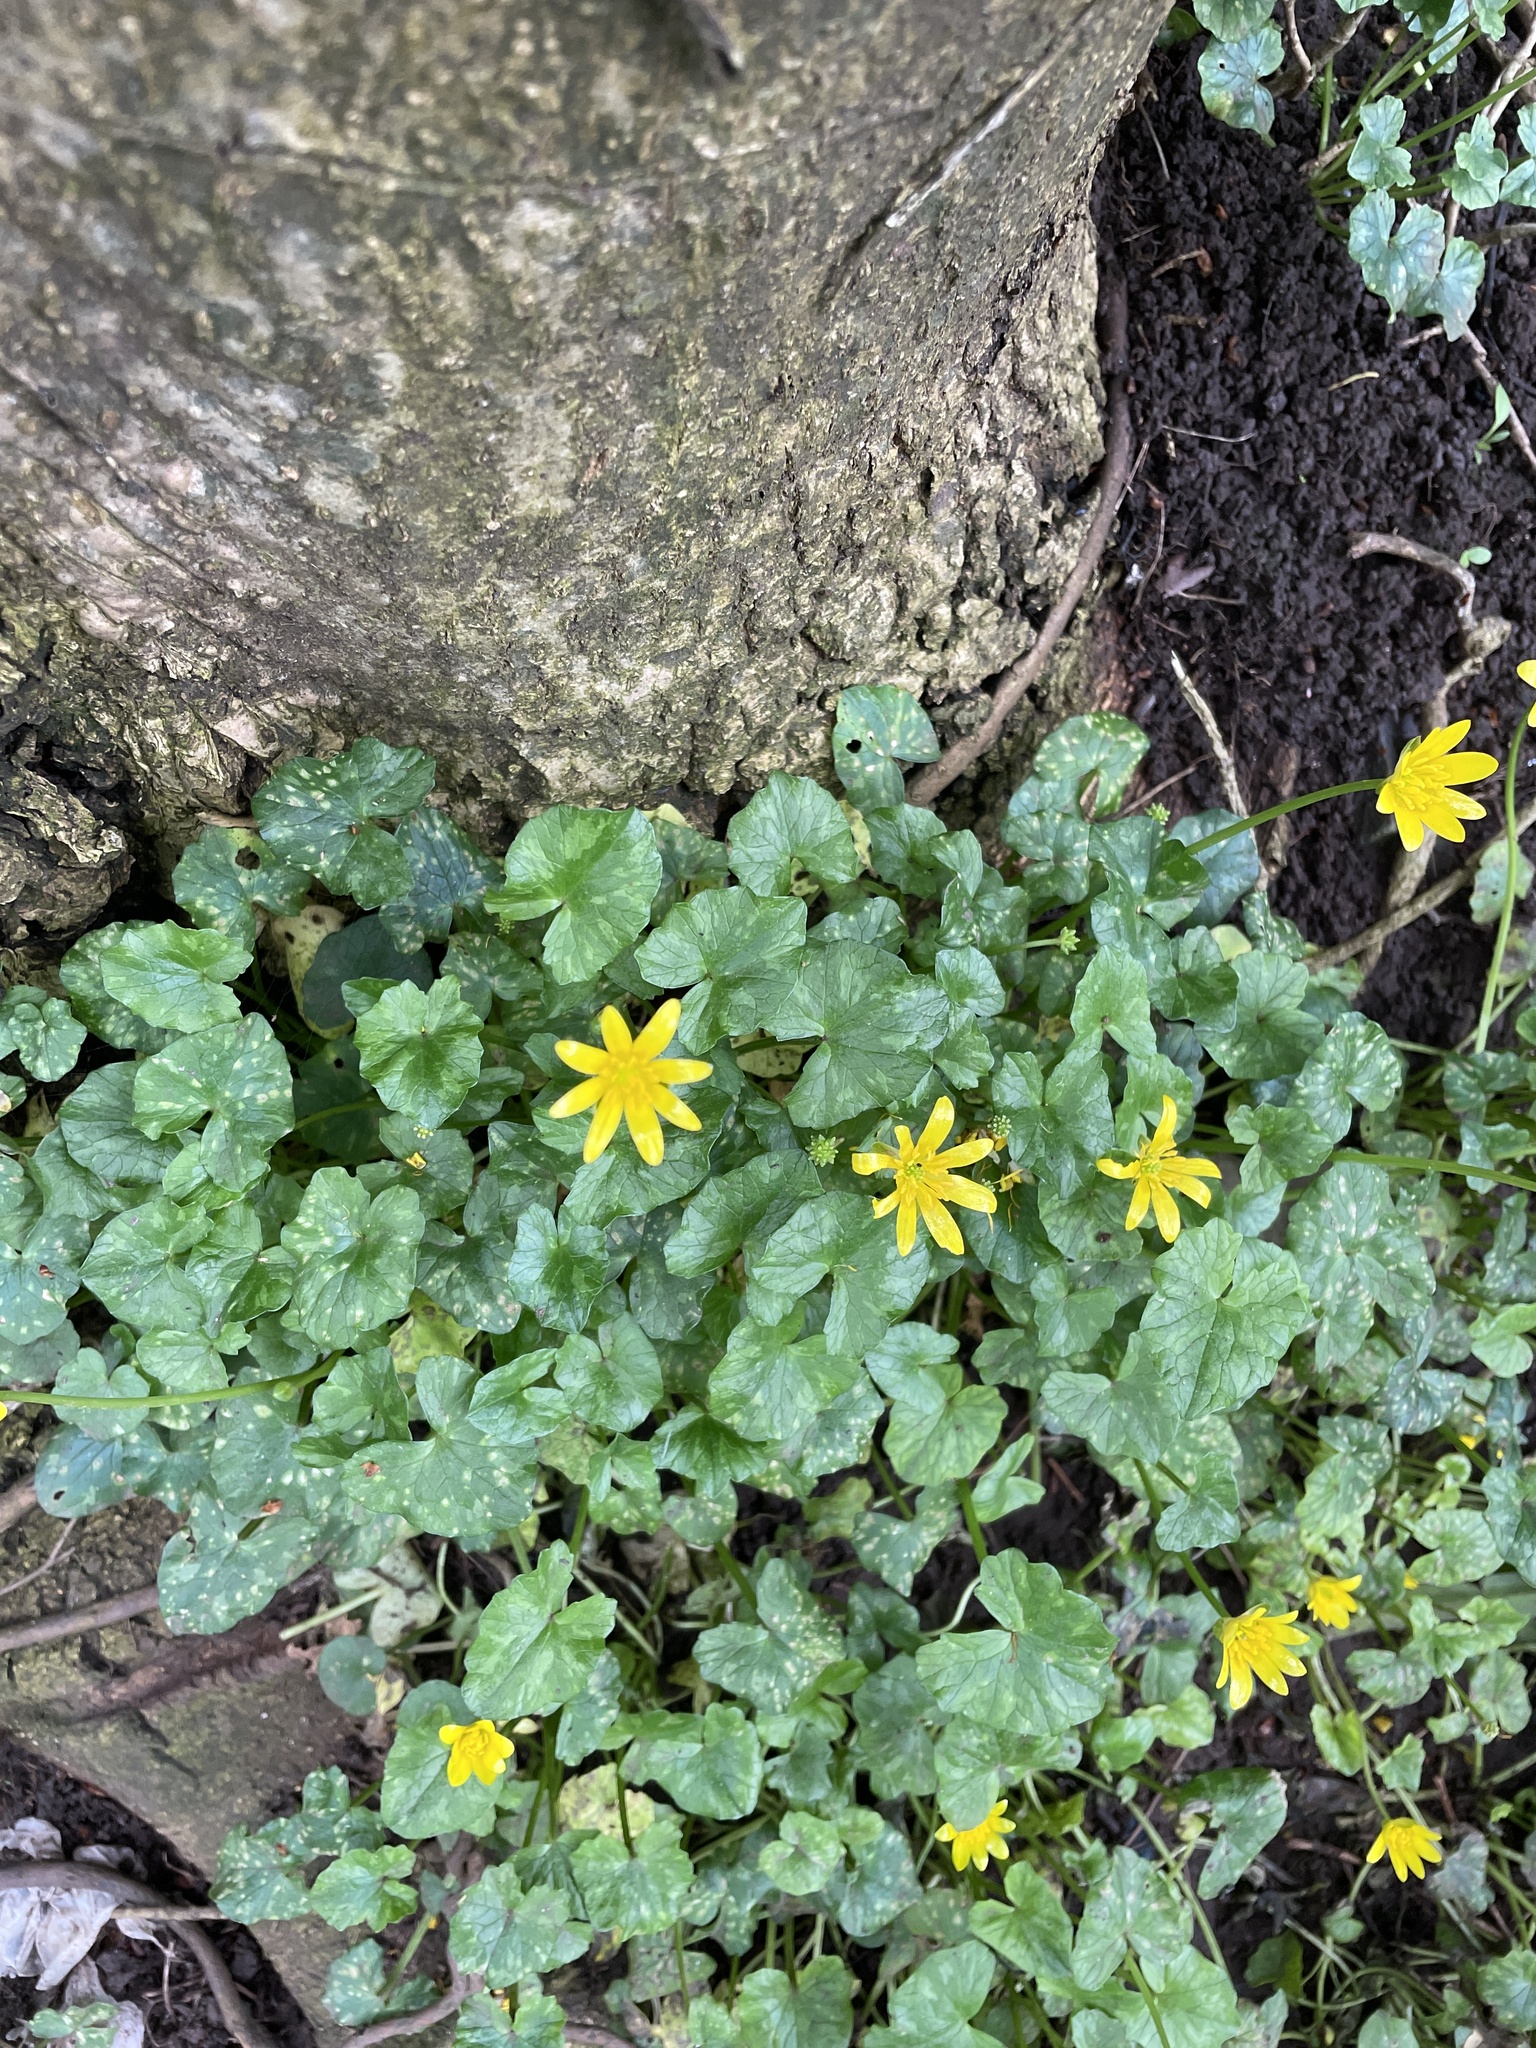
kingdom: Plantae
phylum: Tracheophyta
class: Magnoliopsida
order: Ranunculales
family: Ranunculaceae
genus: Ficaria
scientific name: Ficaria verna
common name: Lesser celandine
